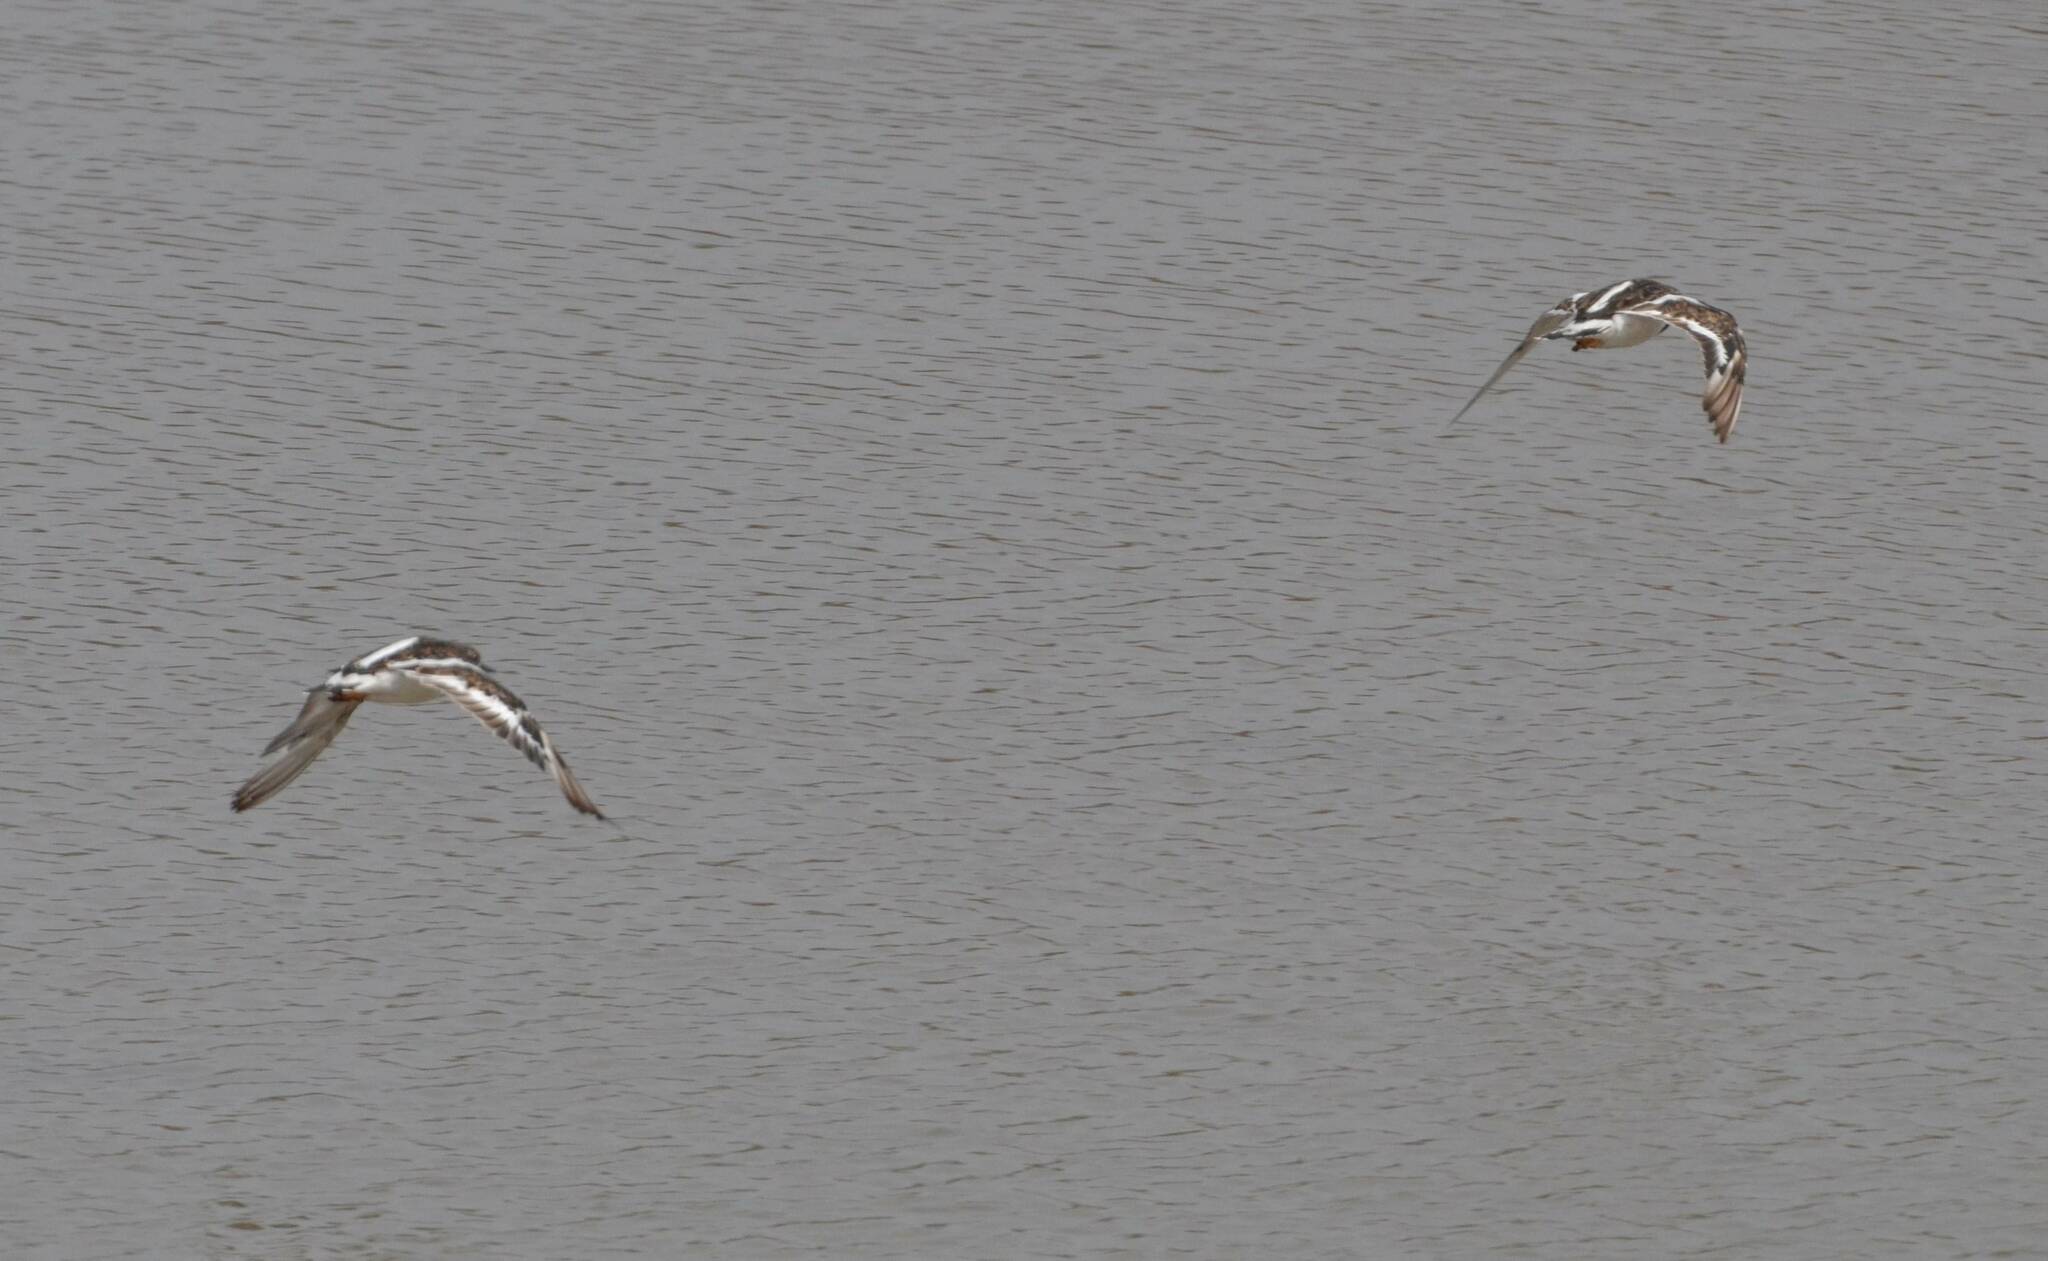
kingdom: Animalia
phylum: Chordata
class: Aves
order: Charadriiformes
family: Scolopacidae
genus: Arenaria
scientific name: Arenaria interpres
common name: Ruddy turnstone
